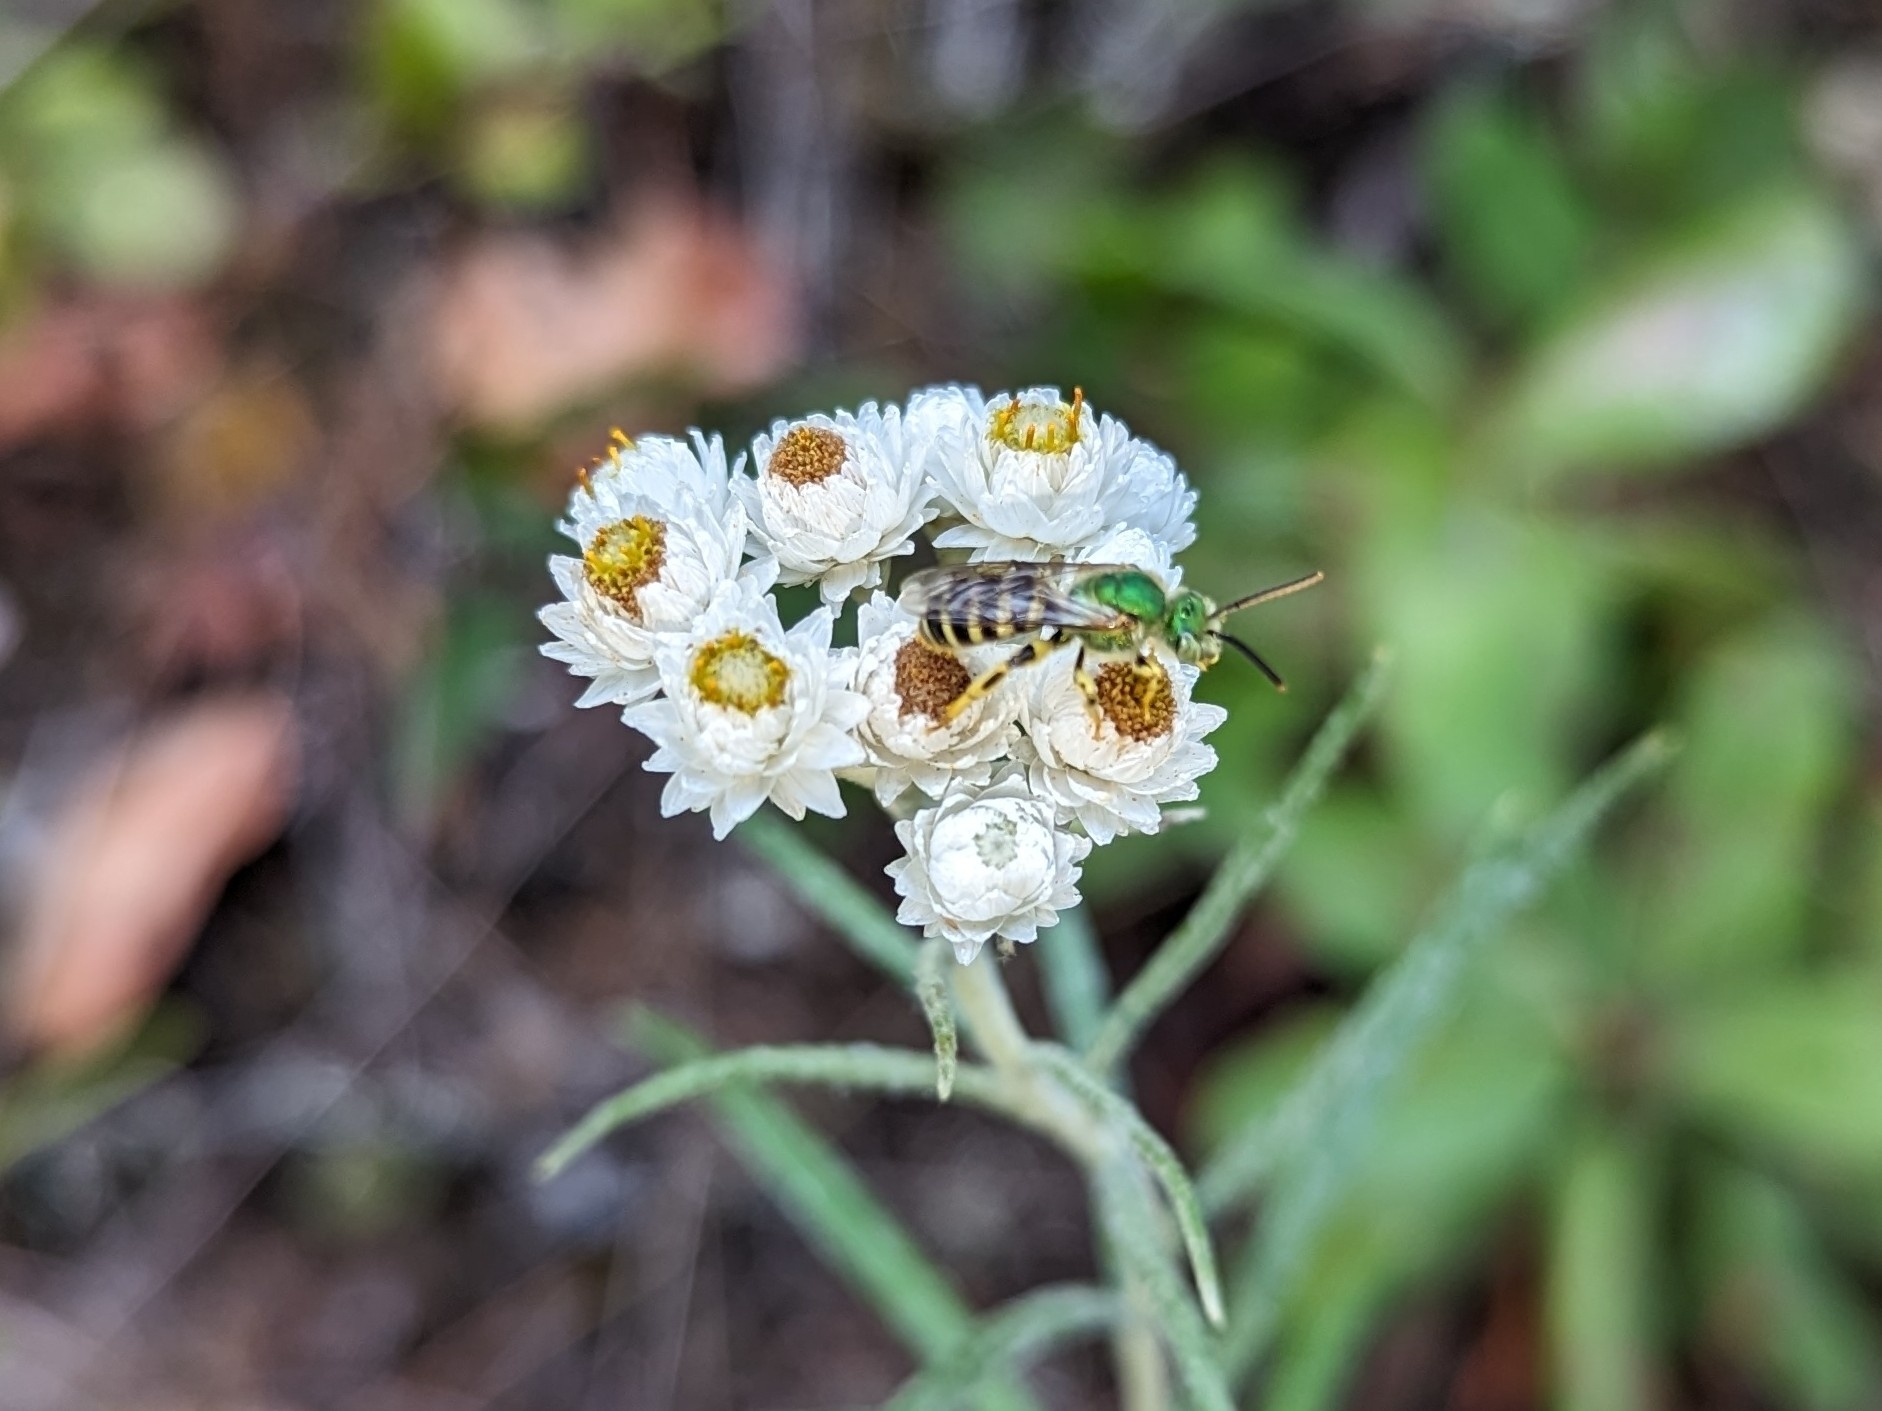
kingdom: Plantae
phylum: Tracheophyta
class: Magnoliopsida
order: Asterales
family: Asteraceae
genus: Anaphalis
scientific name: Anaphalis margaritacea
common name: Pearly everlasting
